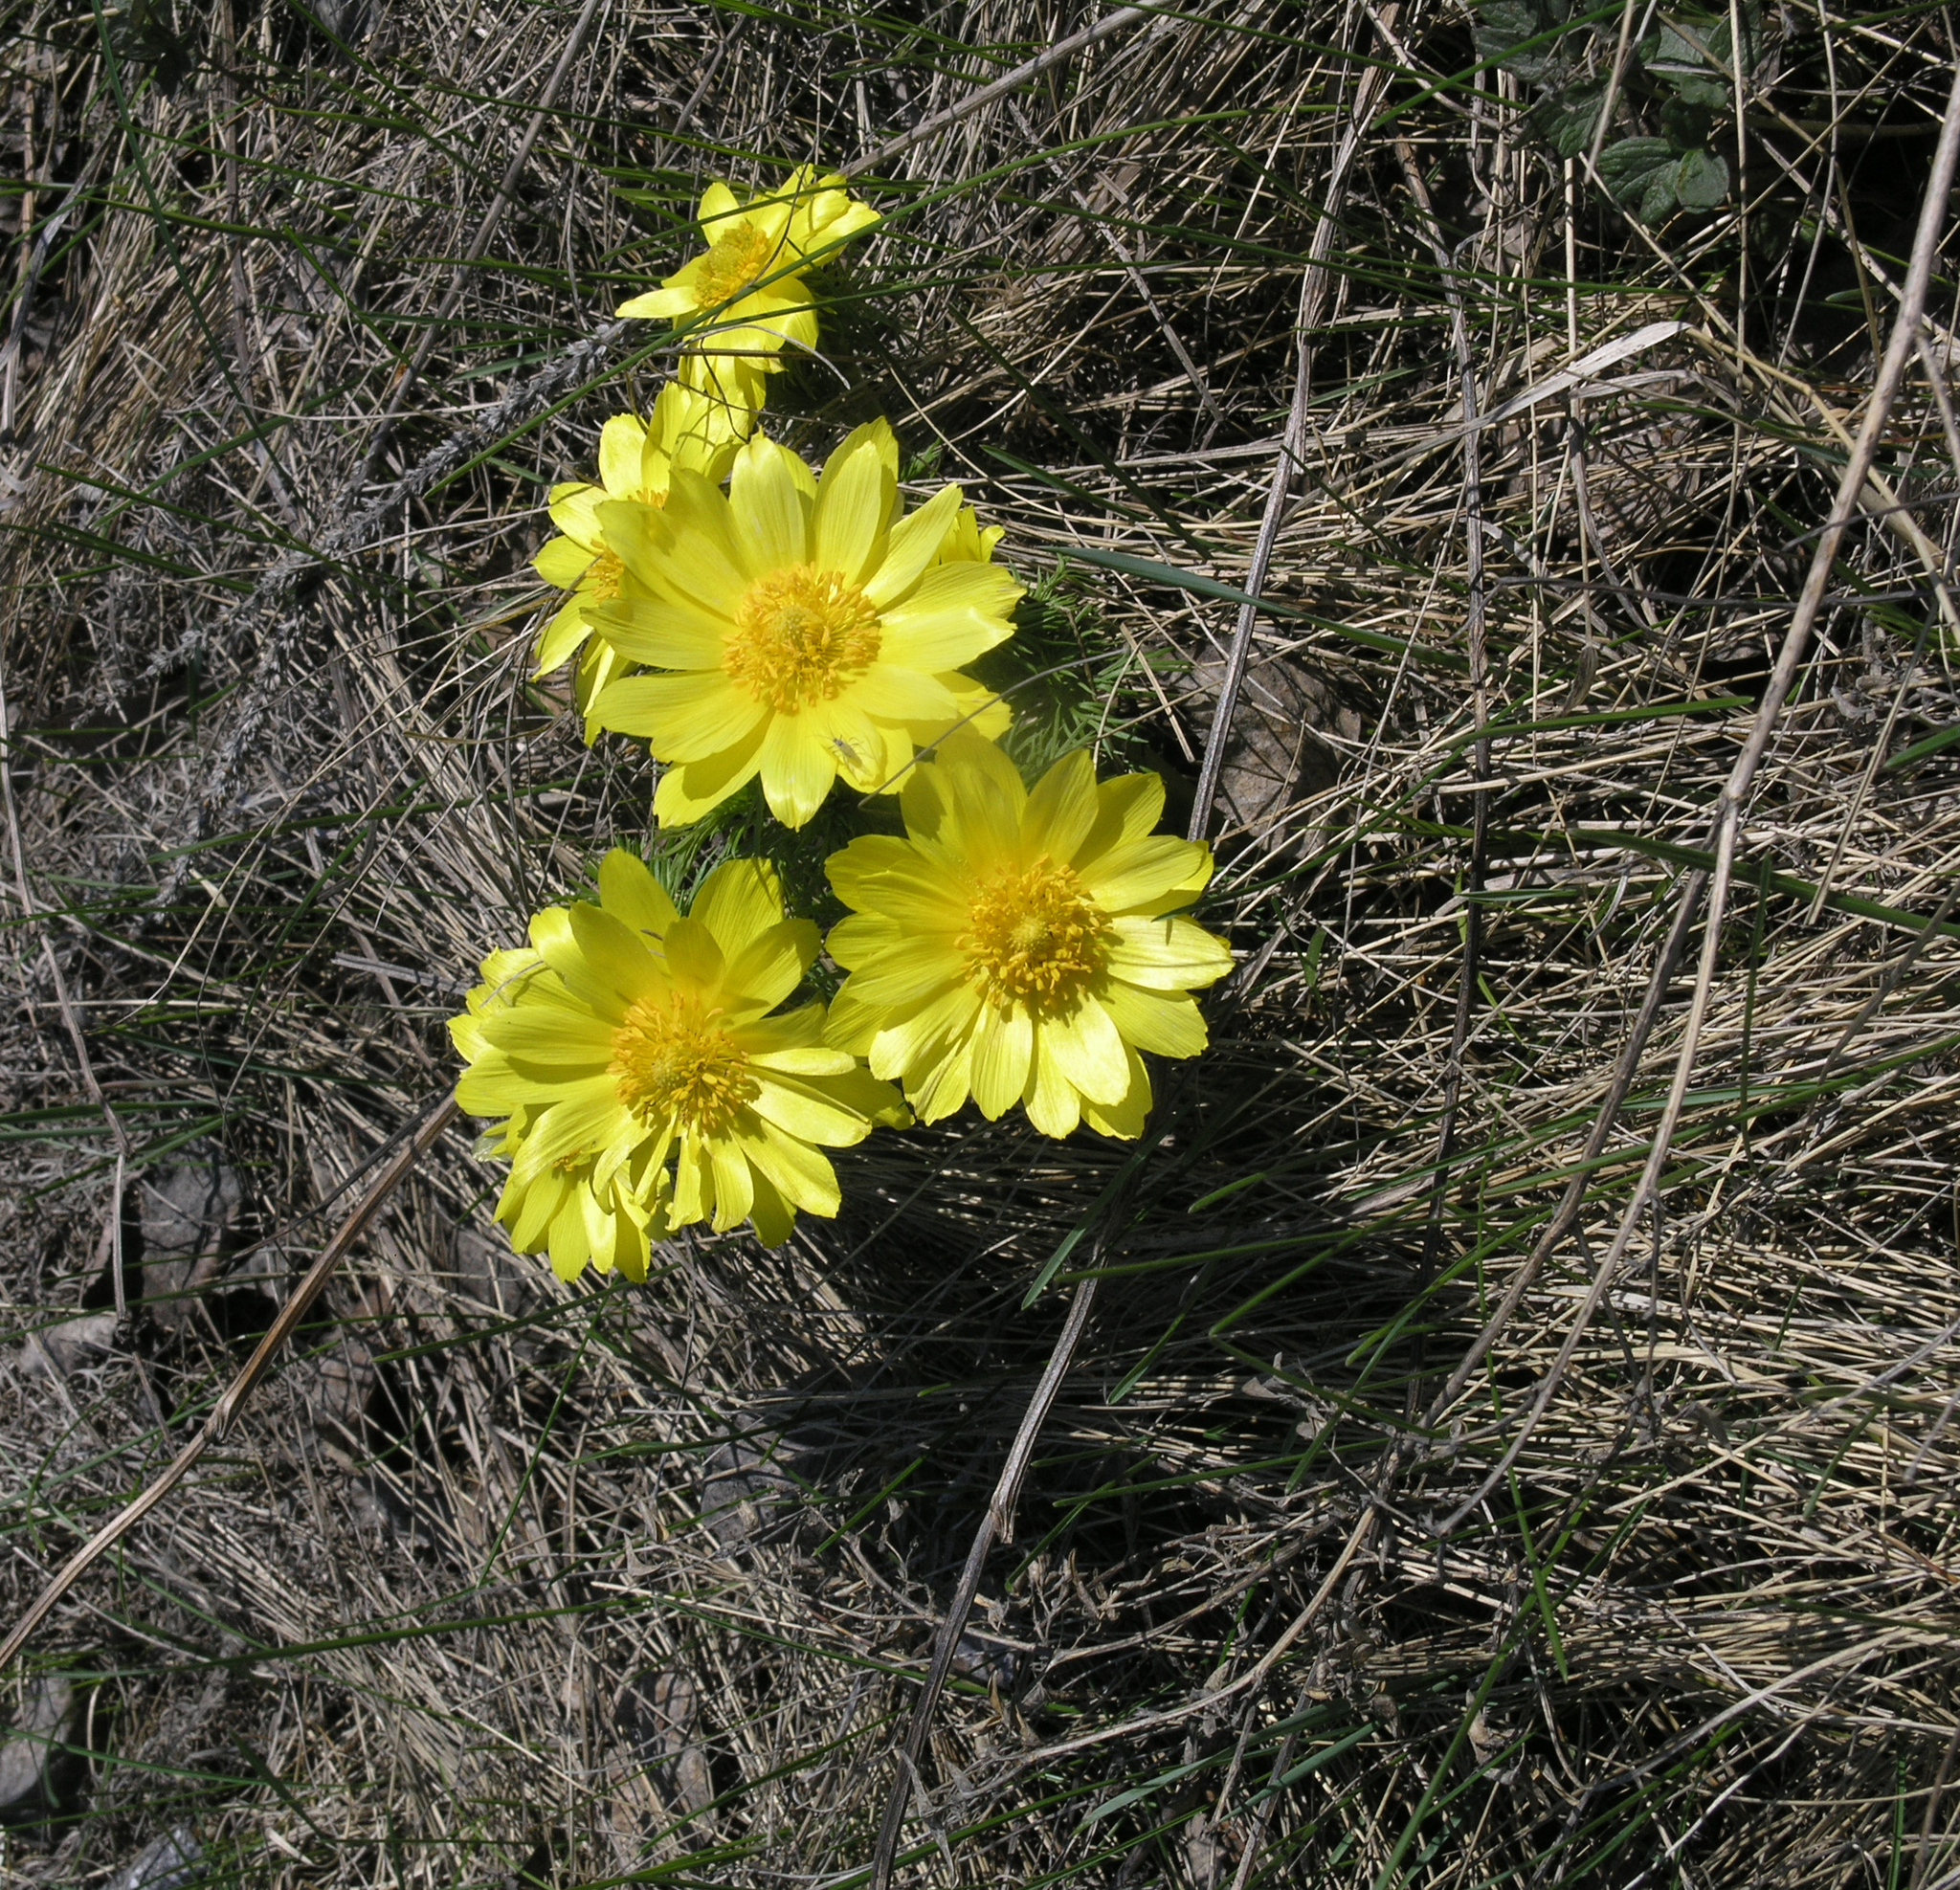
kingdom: Plantae
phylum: Tracheophyta
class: Magnoliopsida
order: Ranunculales
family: Ranunculaceae
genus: Adonis
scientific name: Adonis vernalis
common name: Yellow pheasants-eye
